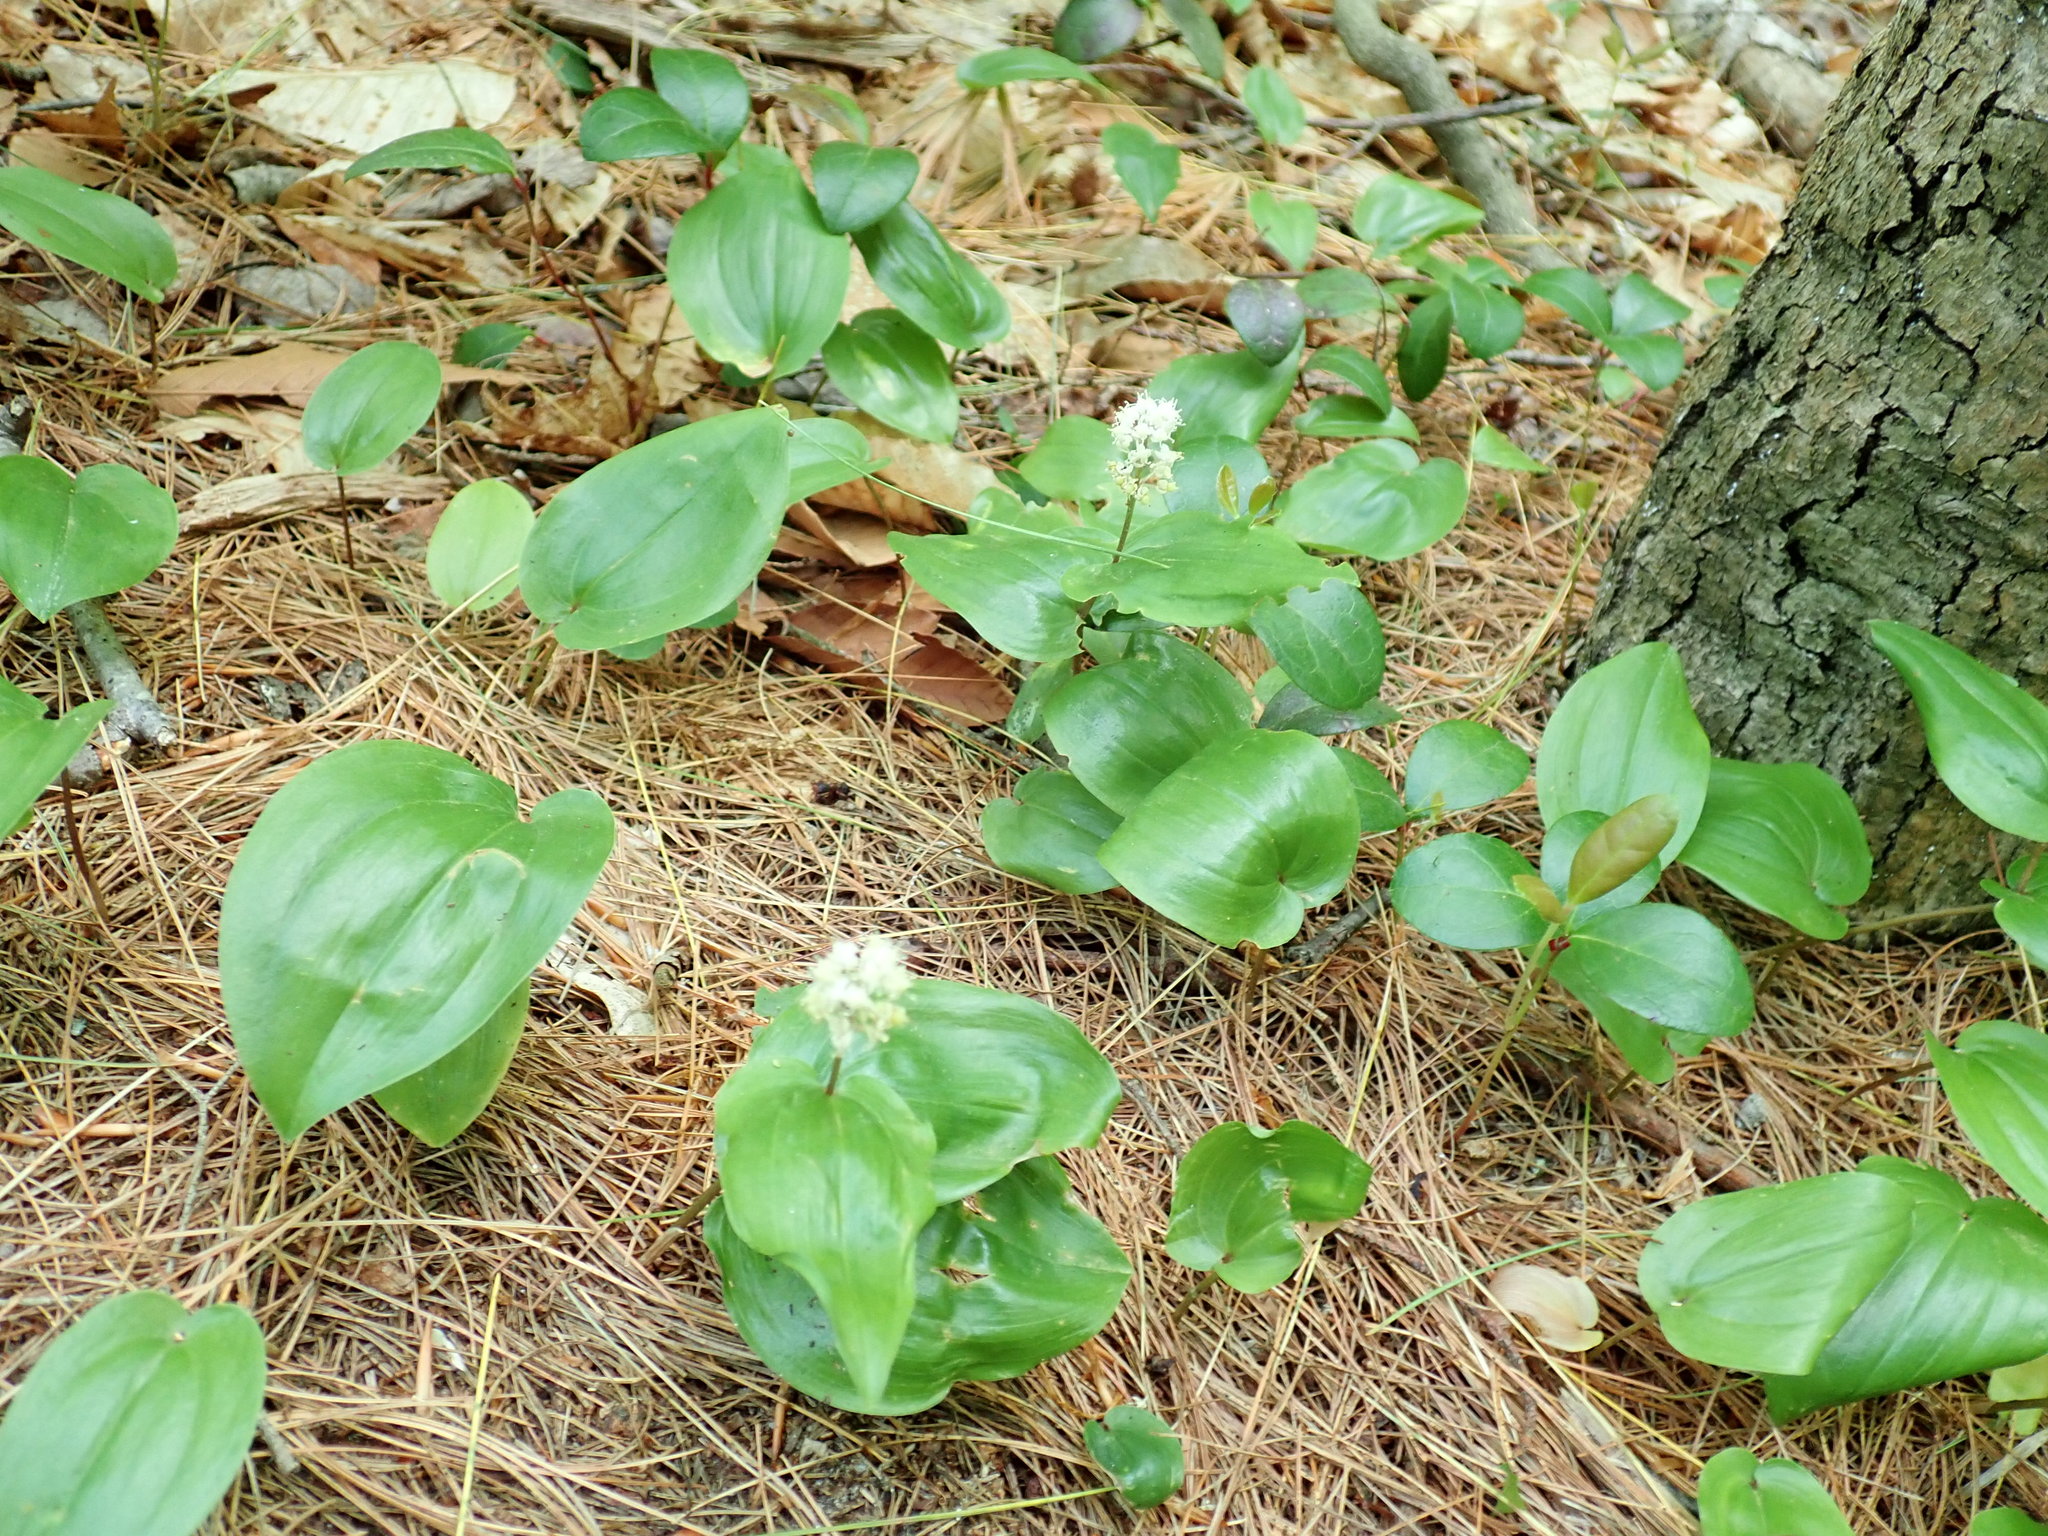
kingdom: Plantae
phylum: Tracheophyta
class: Liliopsida
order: Asparagales
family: Asparagaceae
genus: Maianthemum
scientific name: Maianthemum canadense
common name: False lily-of-the-valley
